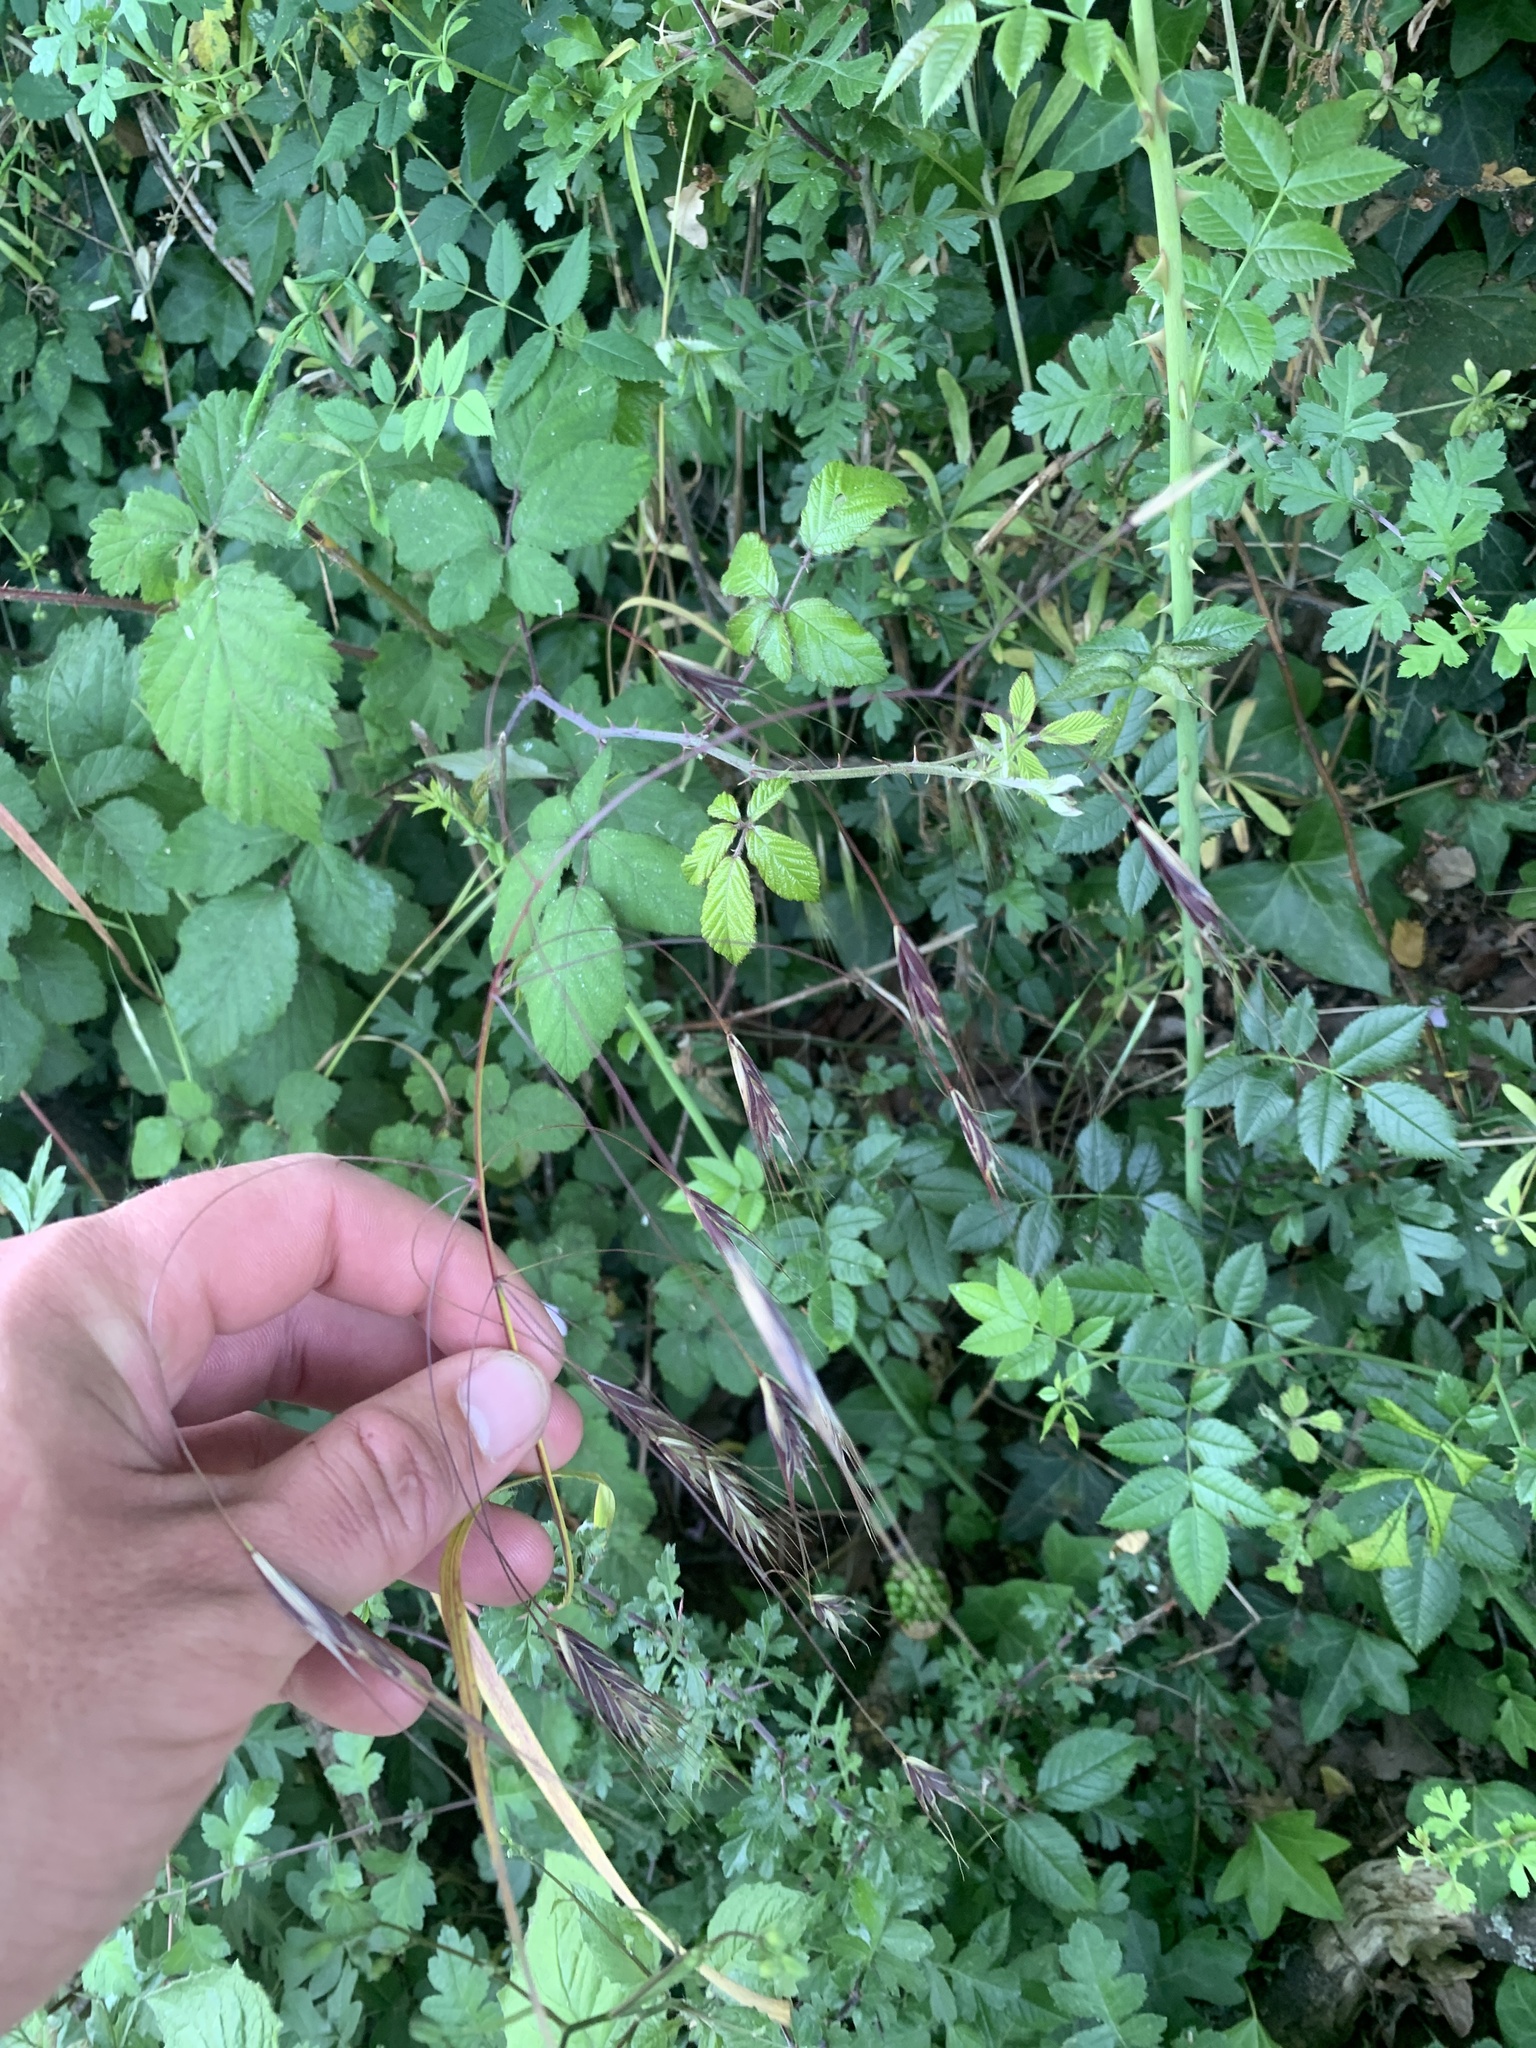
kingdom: Plantae
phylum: Tracheophyta
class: Liliopsida
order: Poales
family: Poaceae
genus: Bromus
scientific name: Bromus sterilis
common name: Poverty brome
